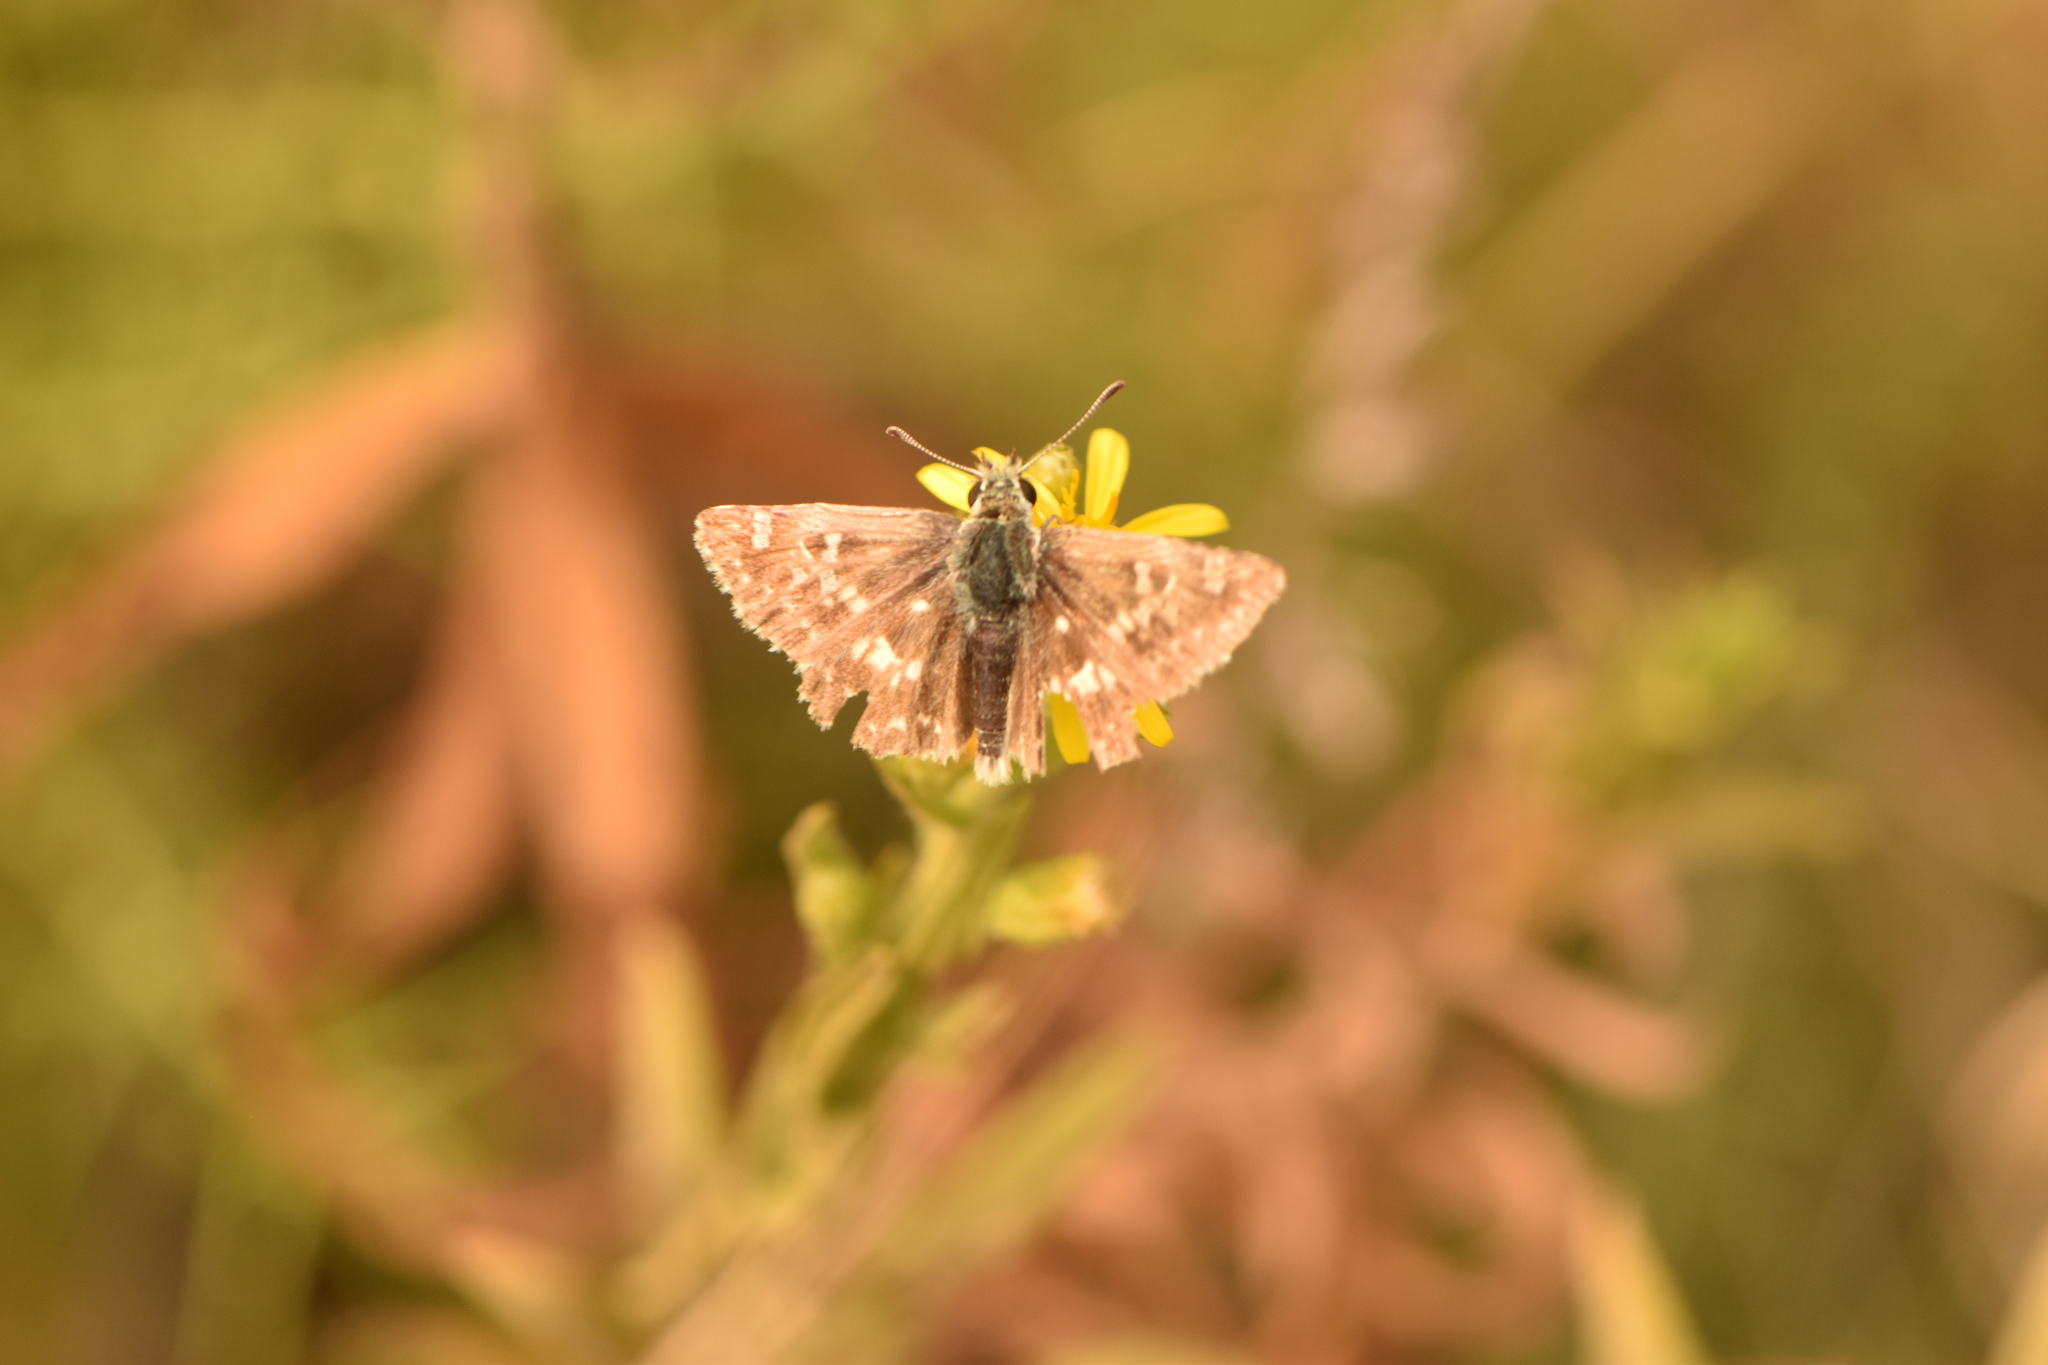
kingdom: Animalia
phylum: Arthropoda
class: Insecta
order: Lepidoptera
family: Hesperiidae
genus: Syrichtus
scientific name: Syrichtus Muschampia proto
